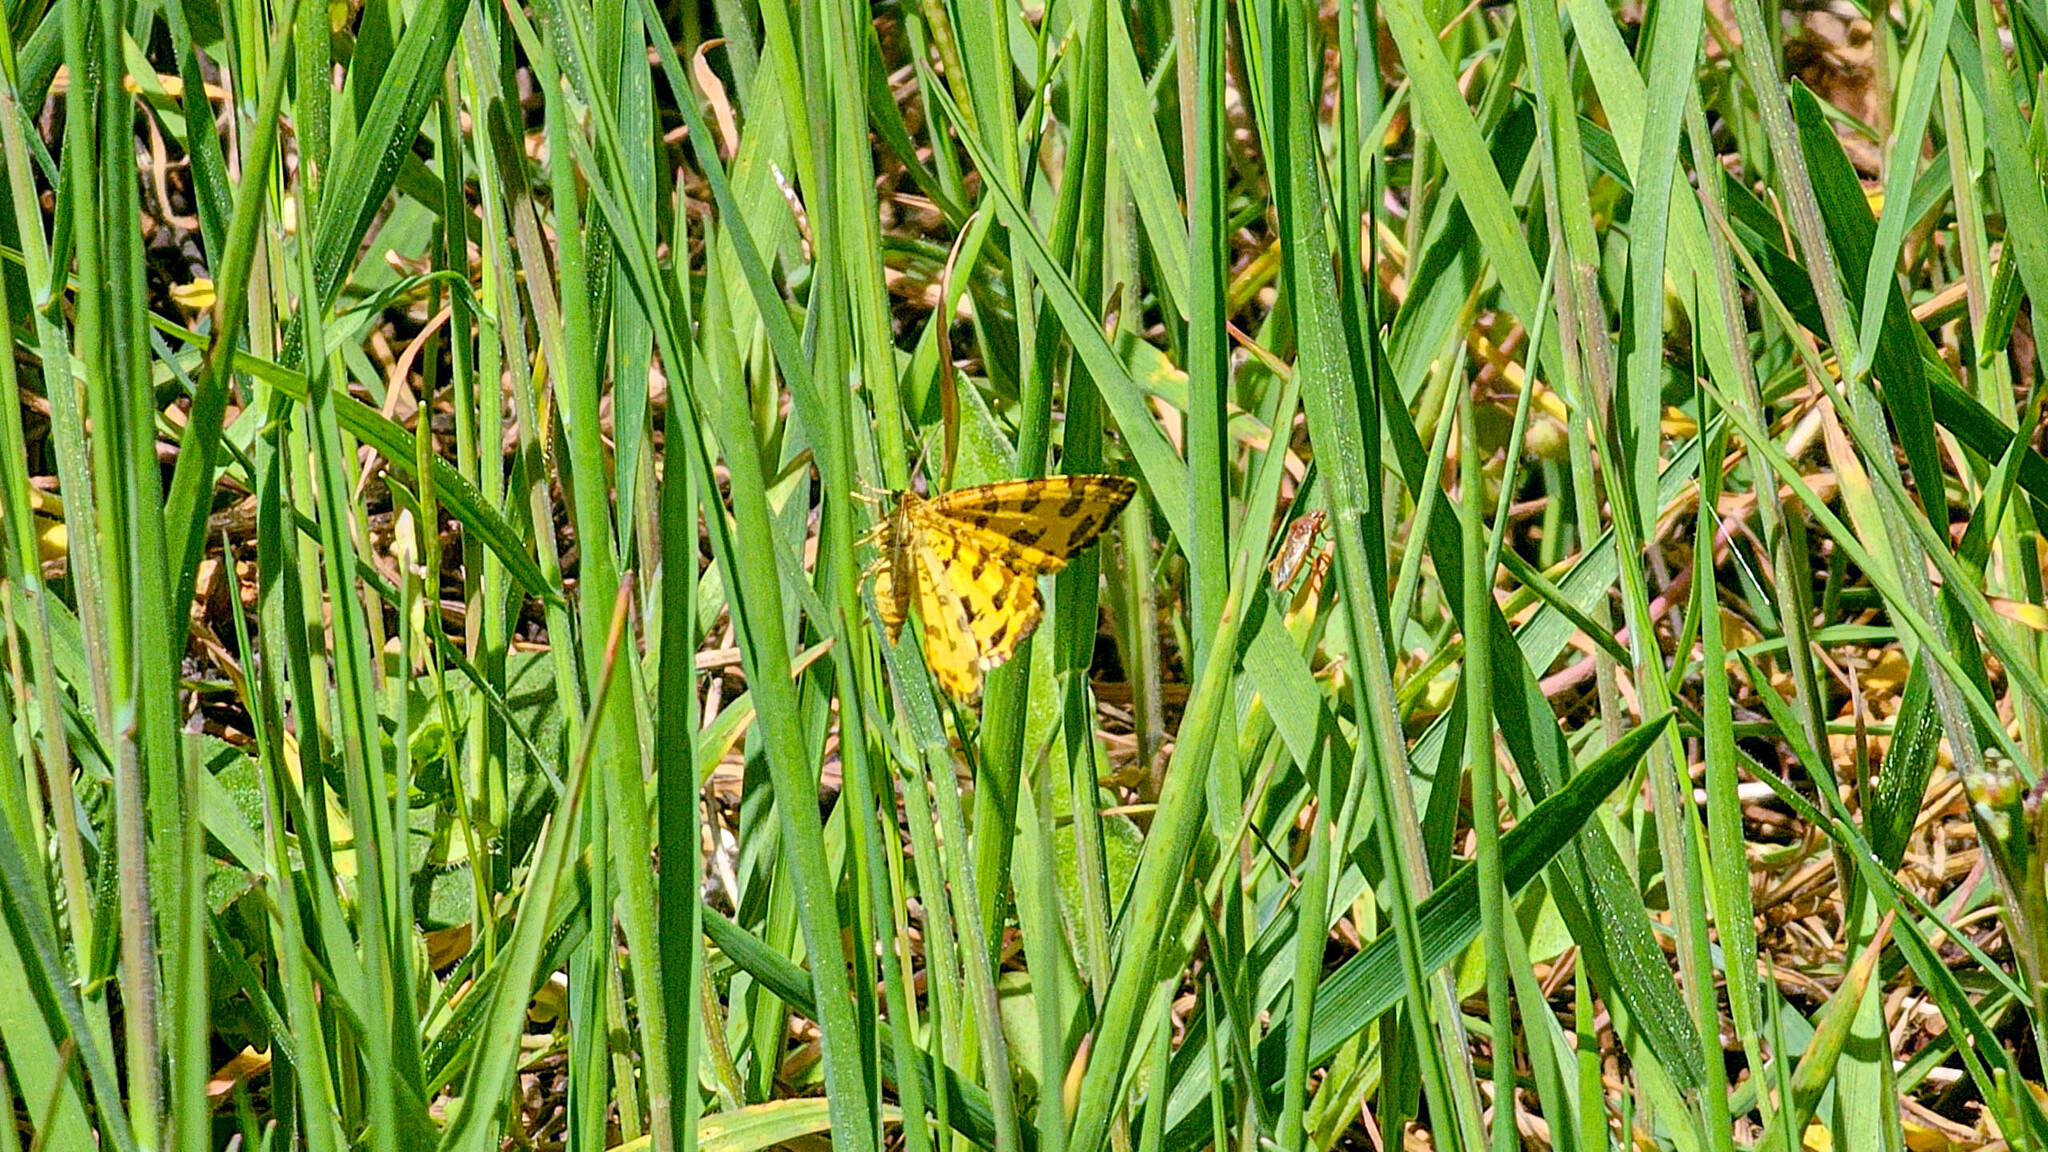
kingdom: Animalia
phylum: Arthropoda
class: Insecta
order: Lepidoptera
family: Geometridae
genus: Pseudopanthera
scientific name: Pseudopanthera macularia
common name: Speckled yellow
